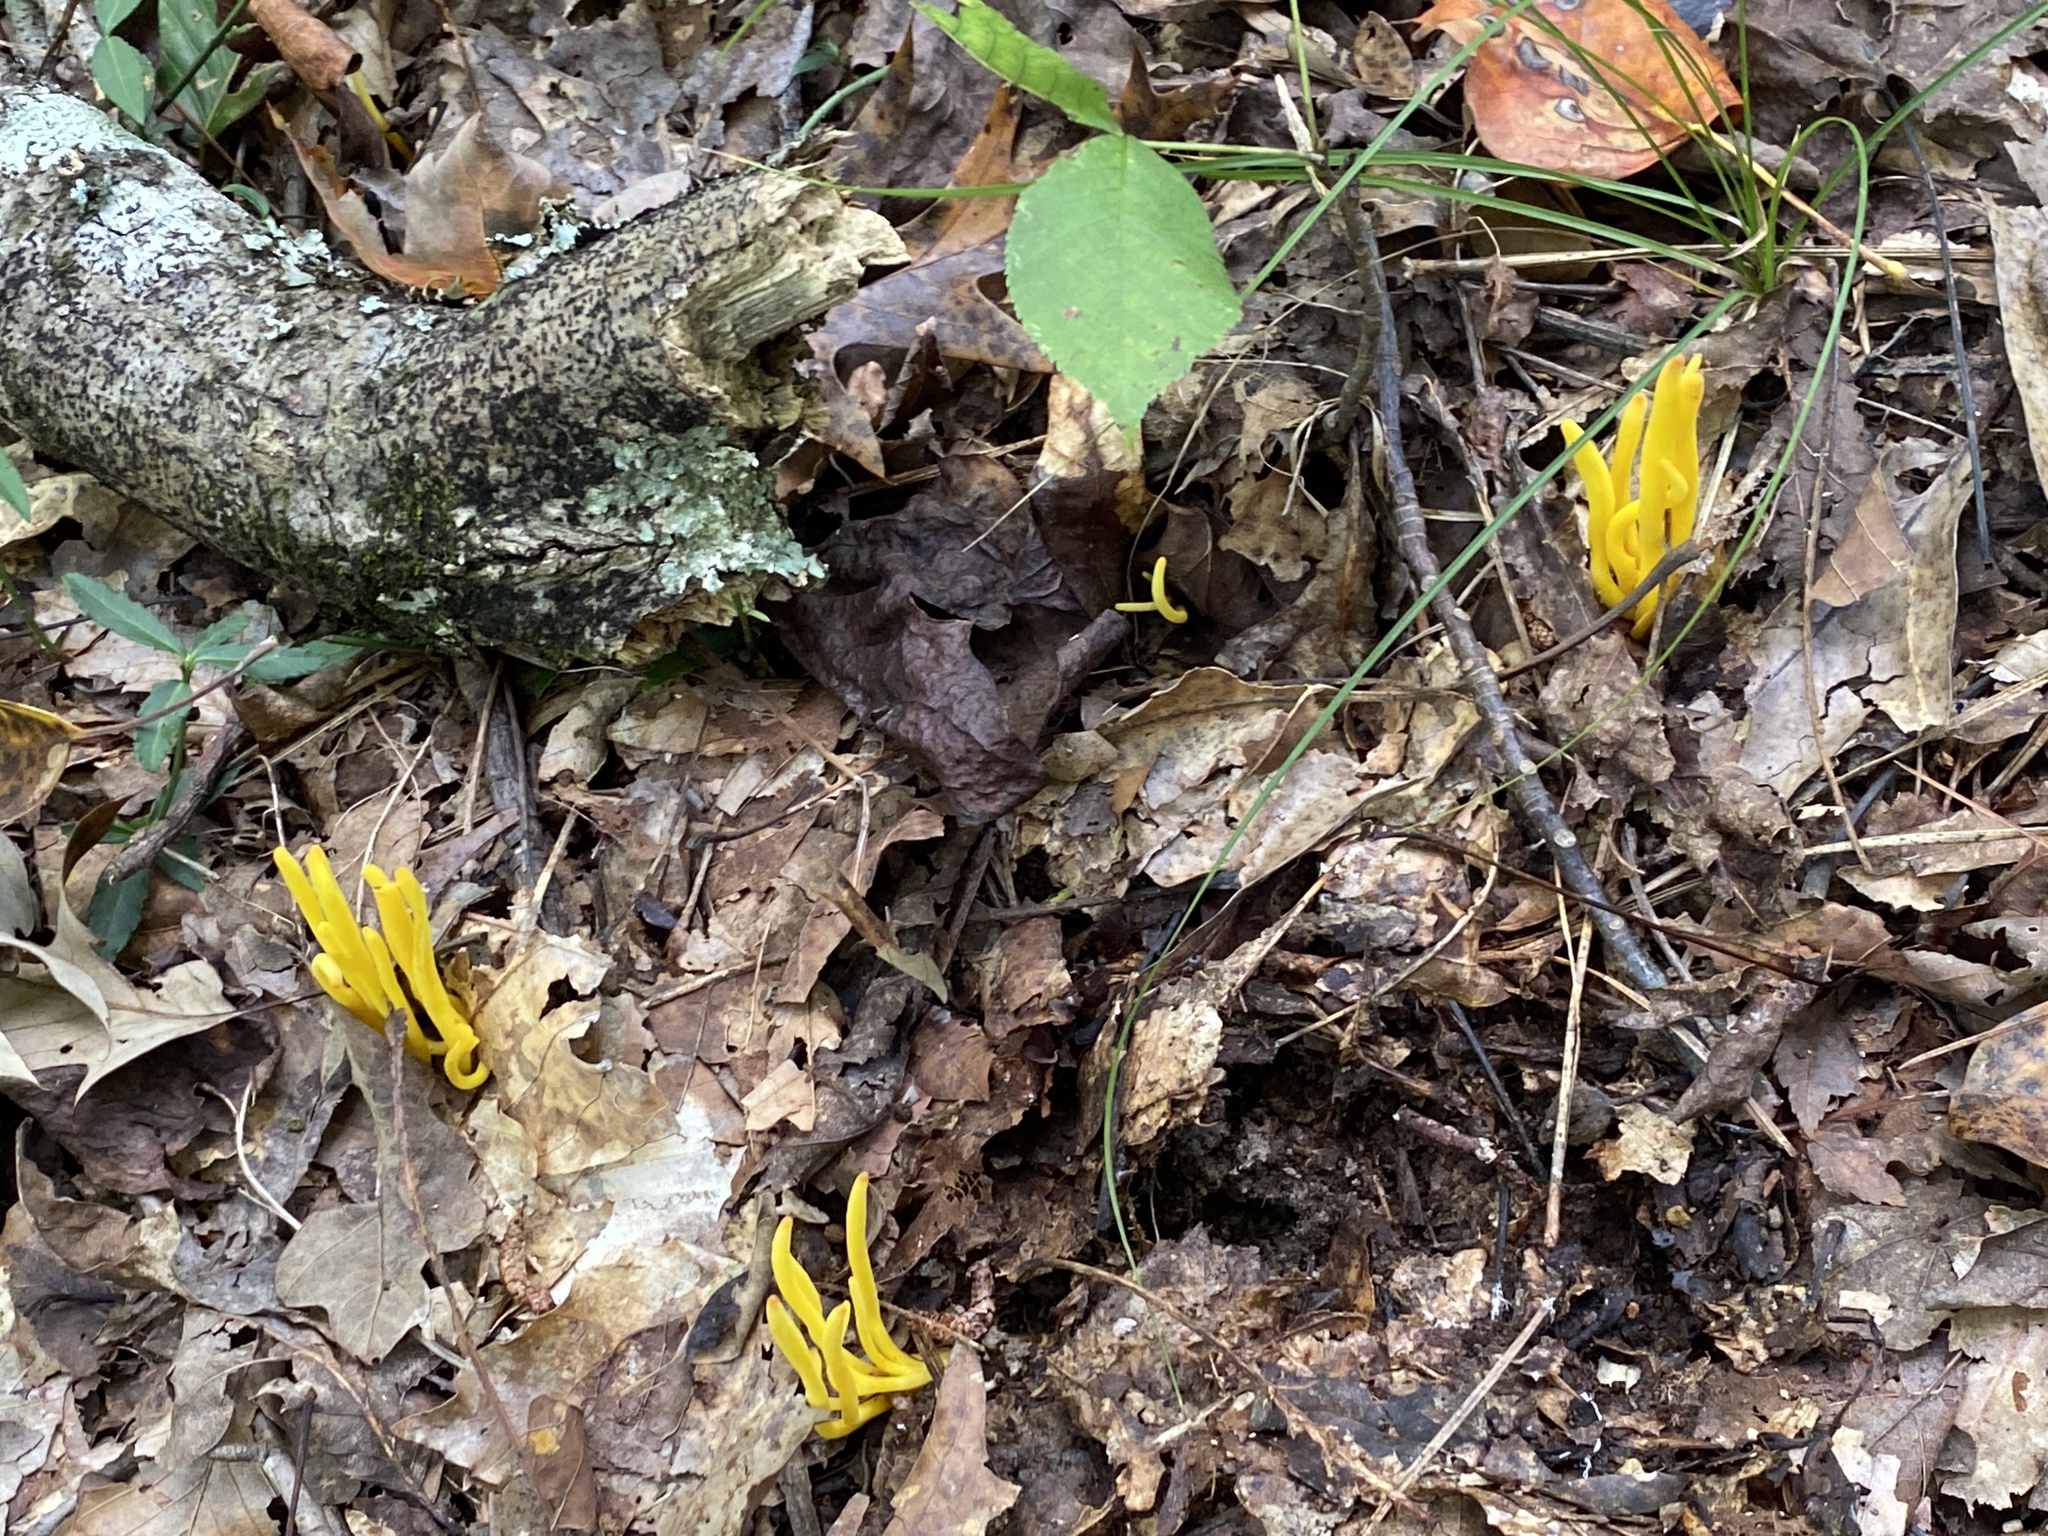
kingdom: Fungi
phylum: Basidiomycota
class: Agaricomycetes
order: Agaricales
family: Clavariaceae
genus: Clavulinopsis
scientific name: Clavulinopsis fusiformis
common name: Golden spindles
